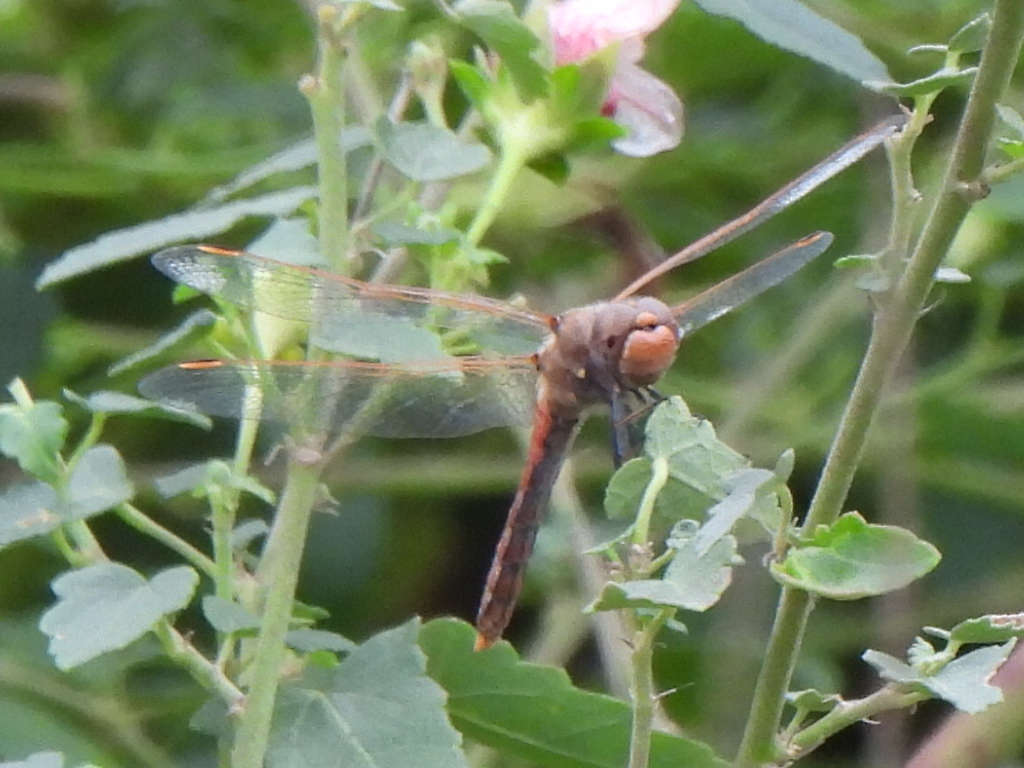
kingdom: Animalia
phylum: Arthropoda
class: Insecta
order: Odonata
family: Libellulidae
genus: Sympetrum
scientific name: Sympetrum corruptum
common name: Variegated meadowhawk
